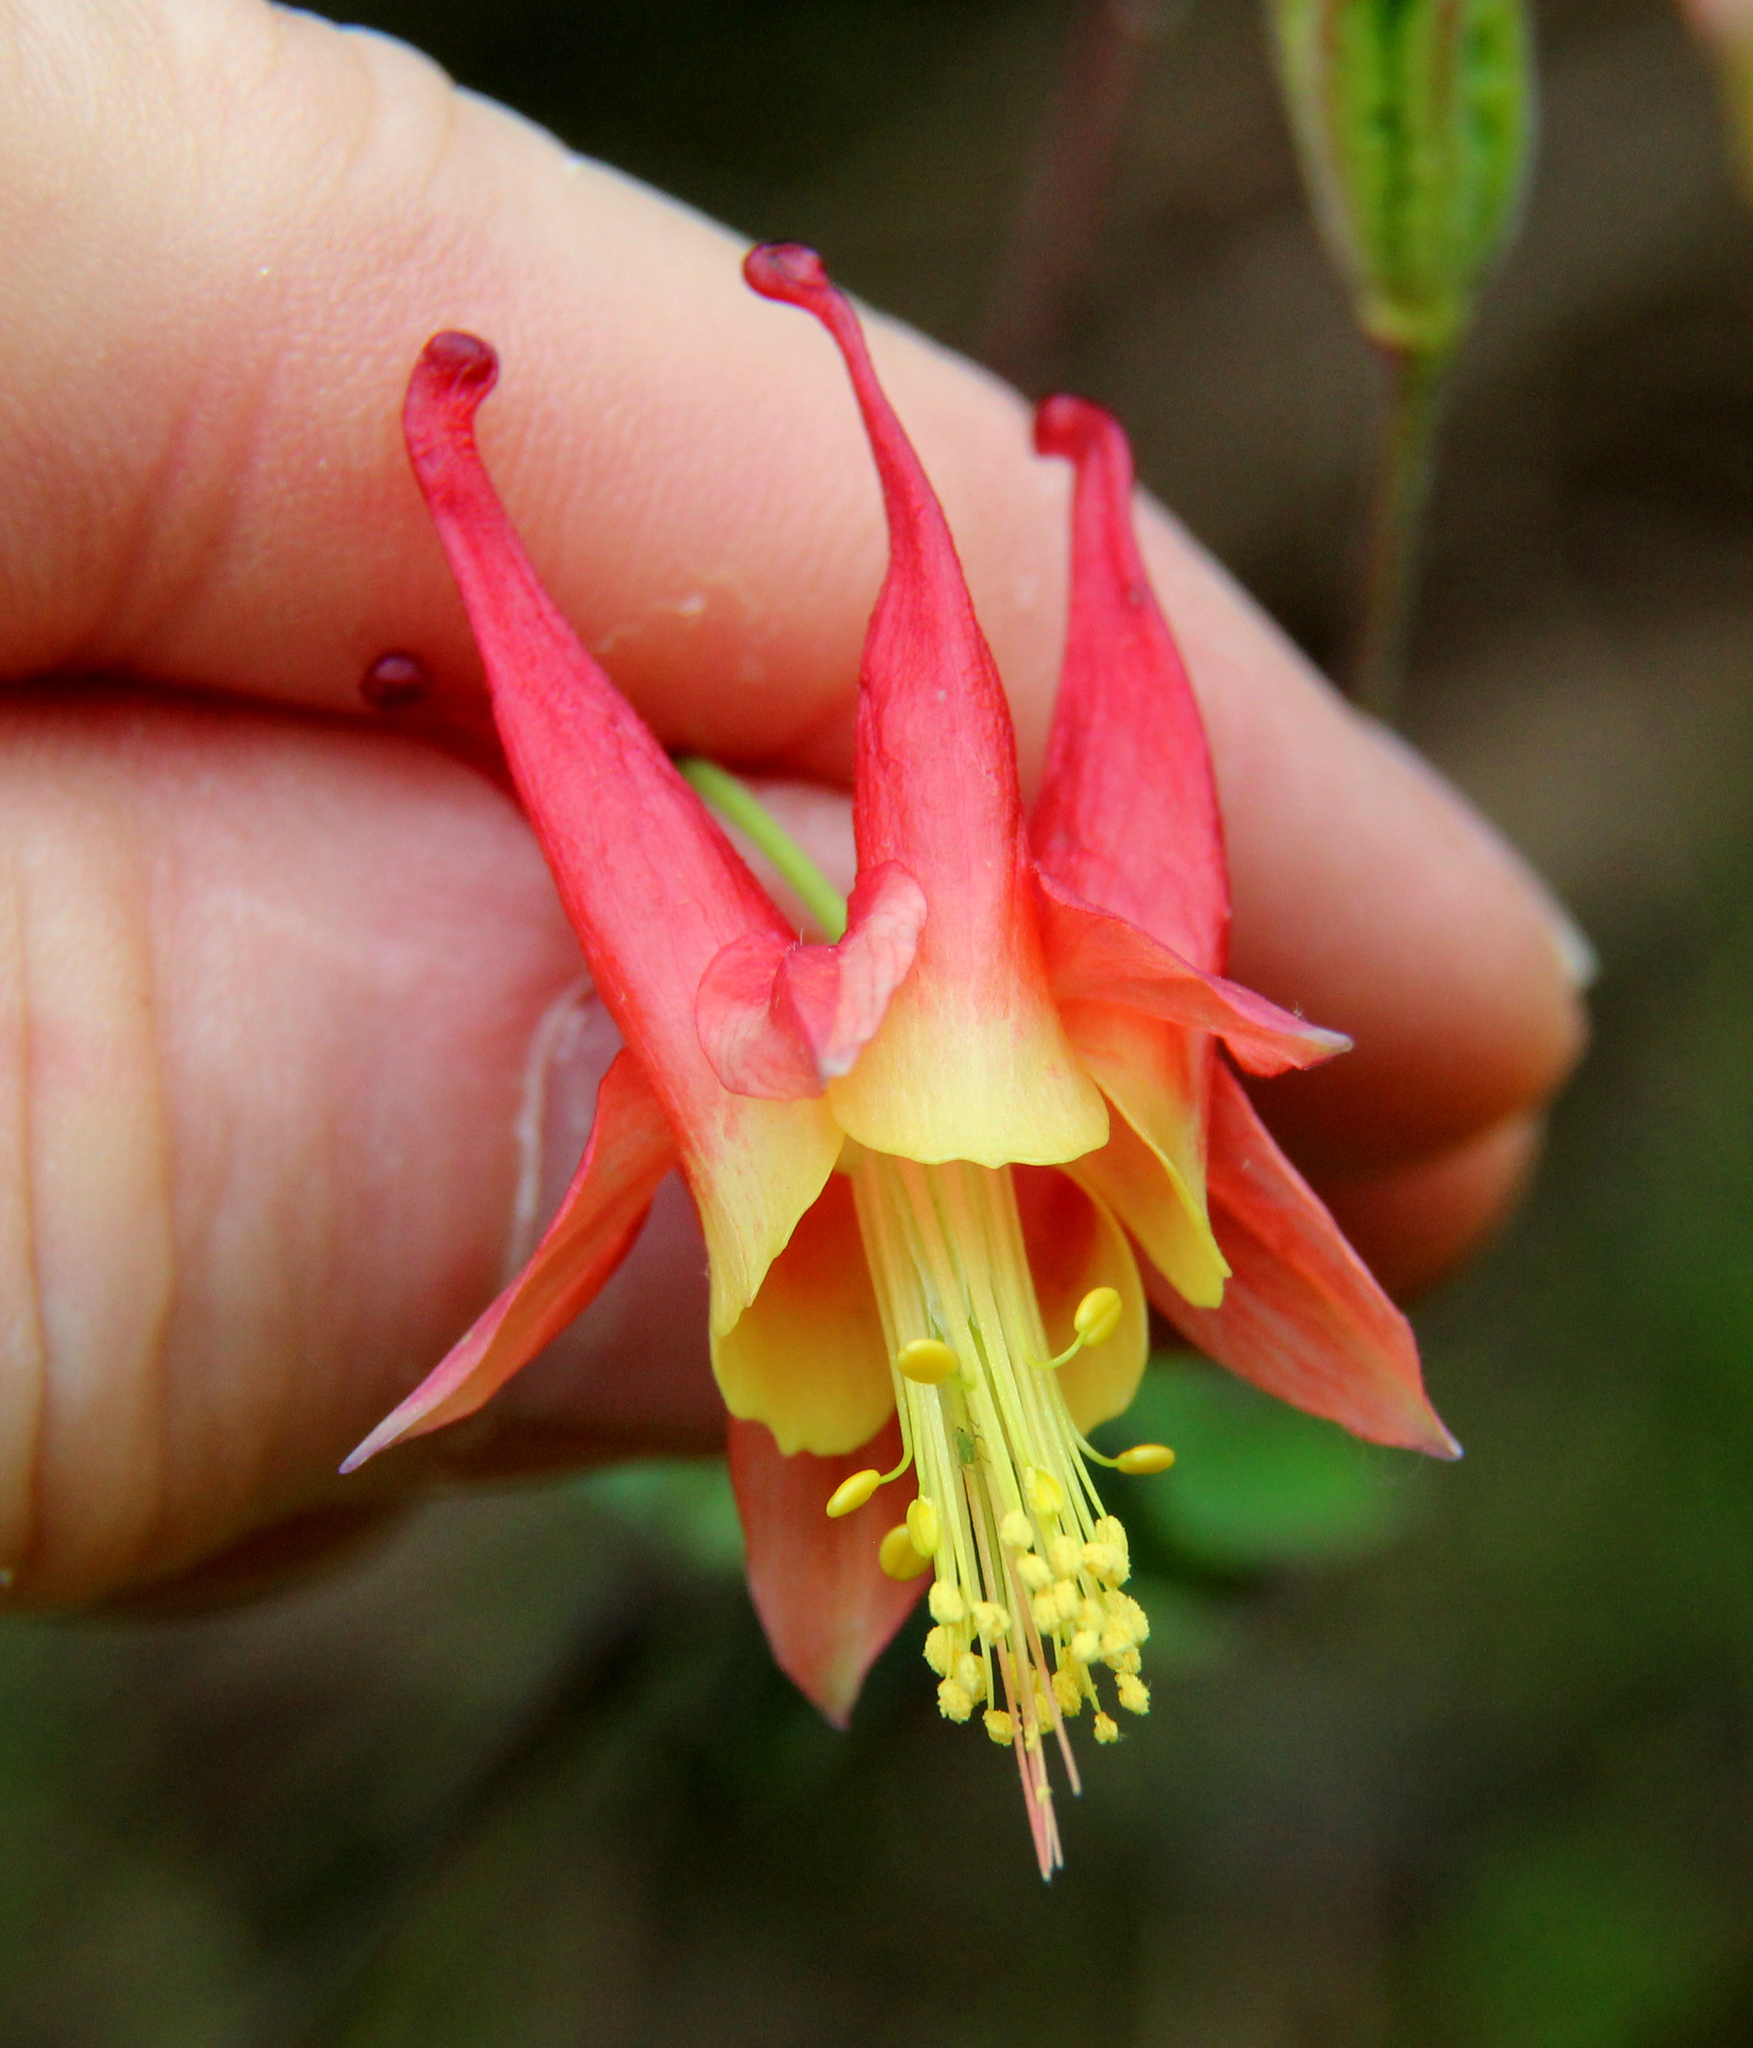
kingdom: Plantae
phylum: Tracheophyta
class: Magnoliopsida
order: Ranunculales
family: Ranunculaceae
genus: Aquilegia
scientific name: Aquilegia canadensis
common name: American columbine
